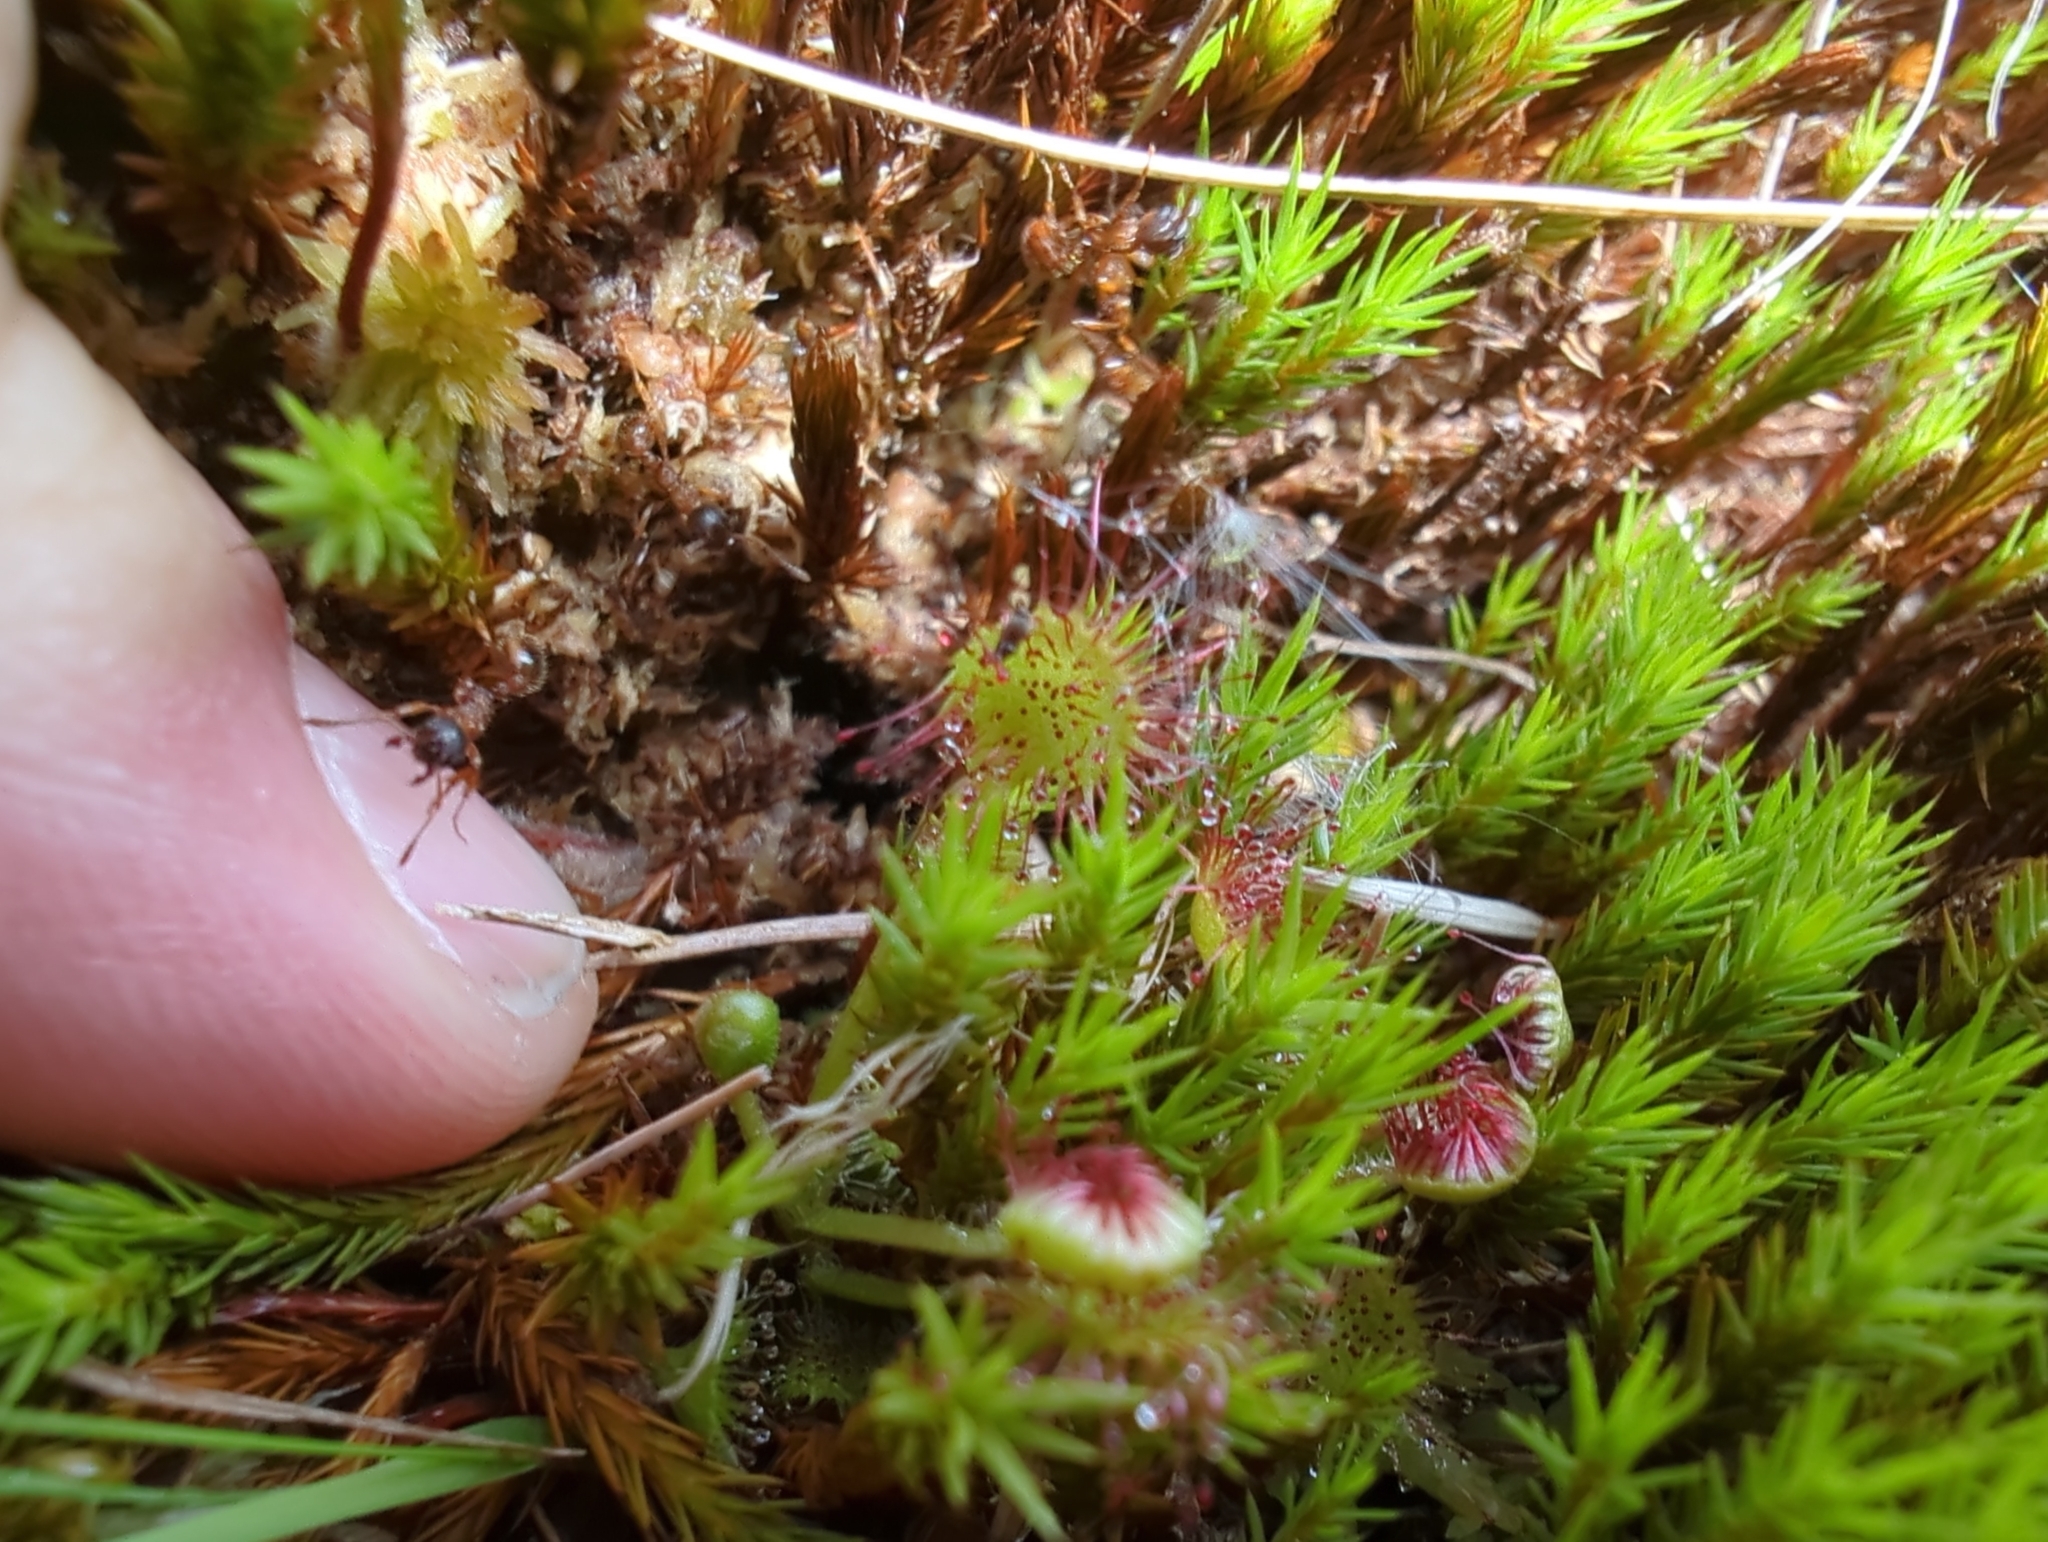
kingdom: Plantae
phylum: Tracheophyta
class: Magnoliopsida
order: Caryophyllales
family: Droseraceae
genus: Drosera
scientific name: Drosera rotundifolia
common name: Round-leaved sundew
